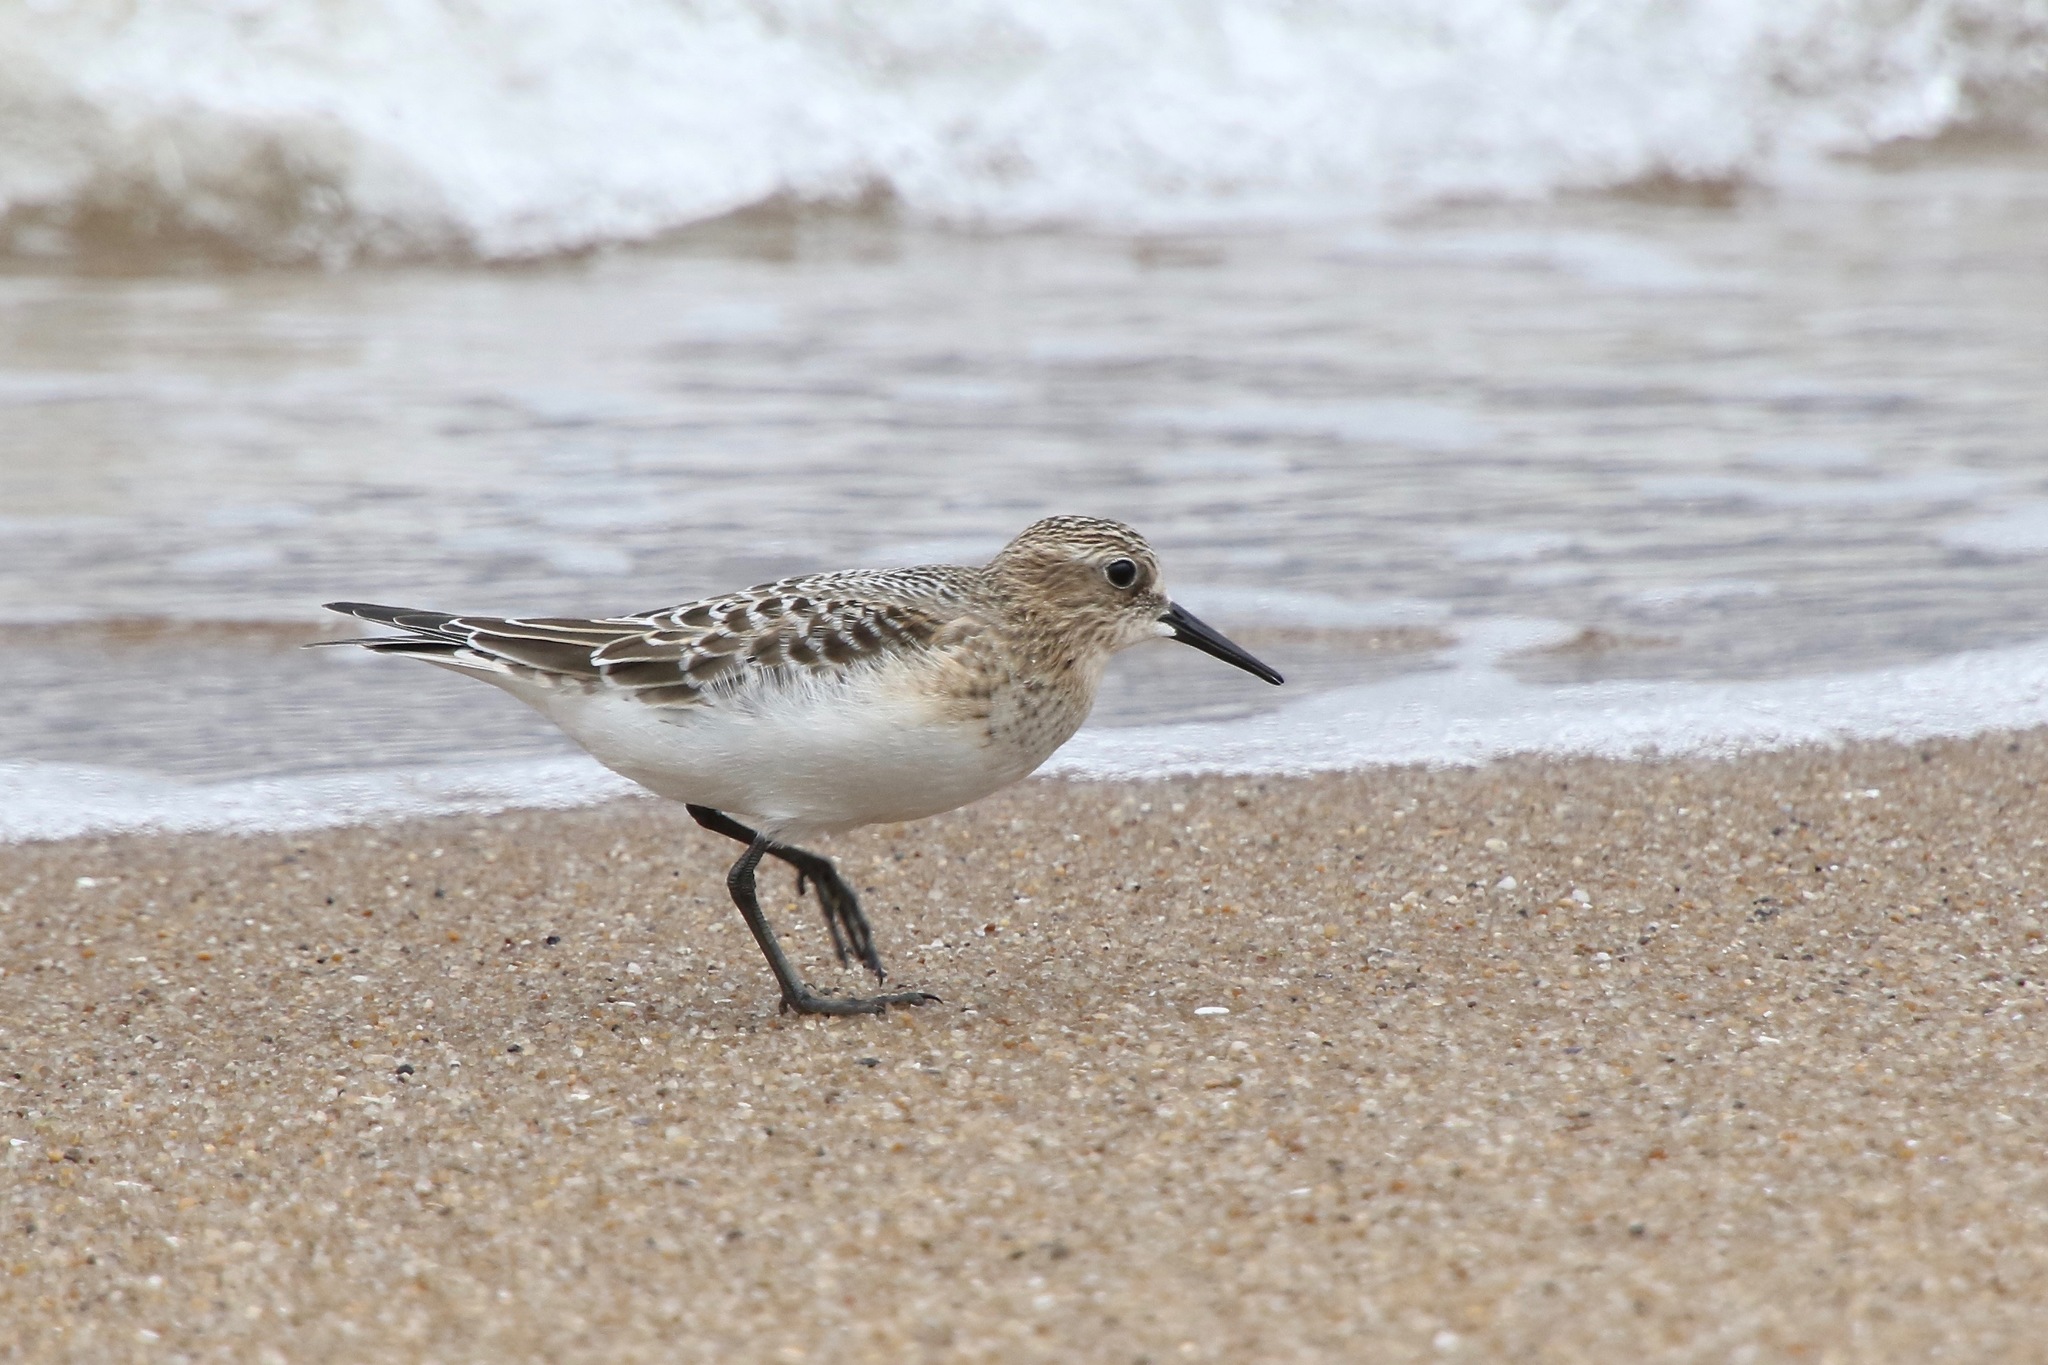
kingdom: Animalia
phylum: Chordata
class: Aves
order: Charadriiformes
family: Scolopacidae
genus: Calidris
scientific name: Calidris bairdii
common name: Baird's sandpiper
